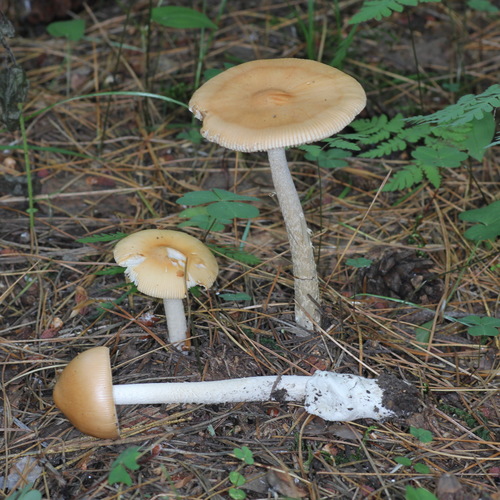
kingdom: Fungi
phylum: Basidiomycota
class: Agaricomycetes
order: Agaricales
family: Amanitaceae
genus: Amanita
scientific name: Amanita crocea
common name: Orange grisette
